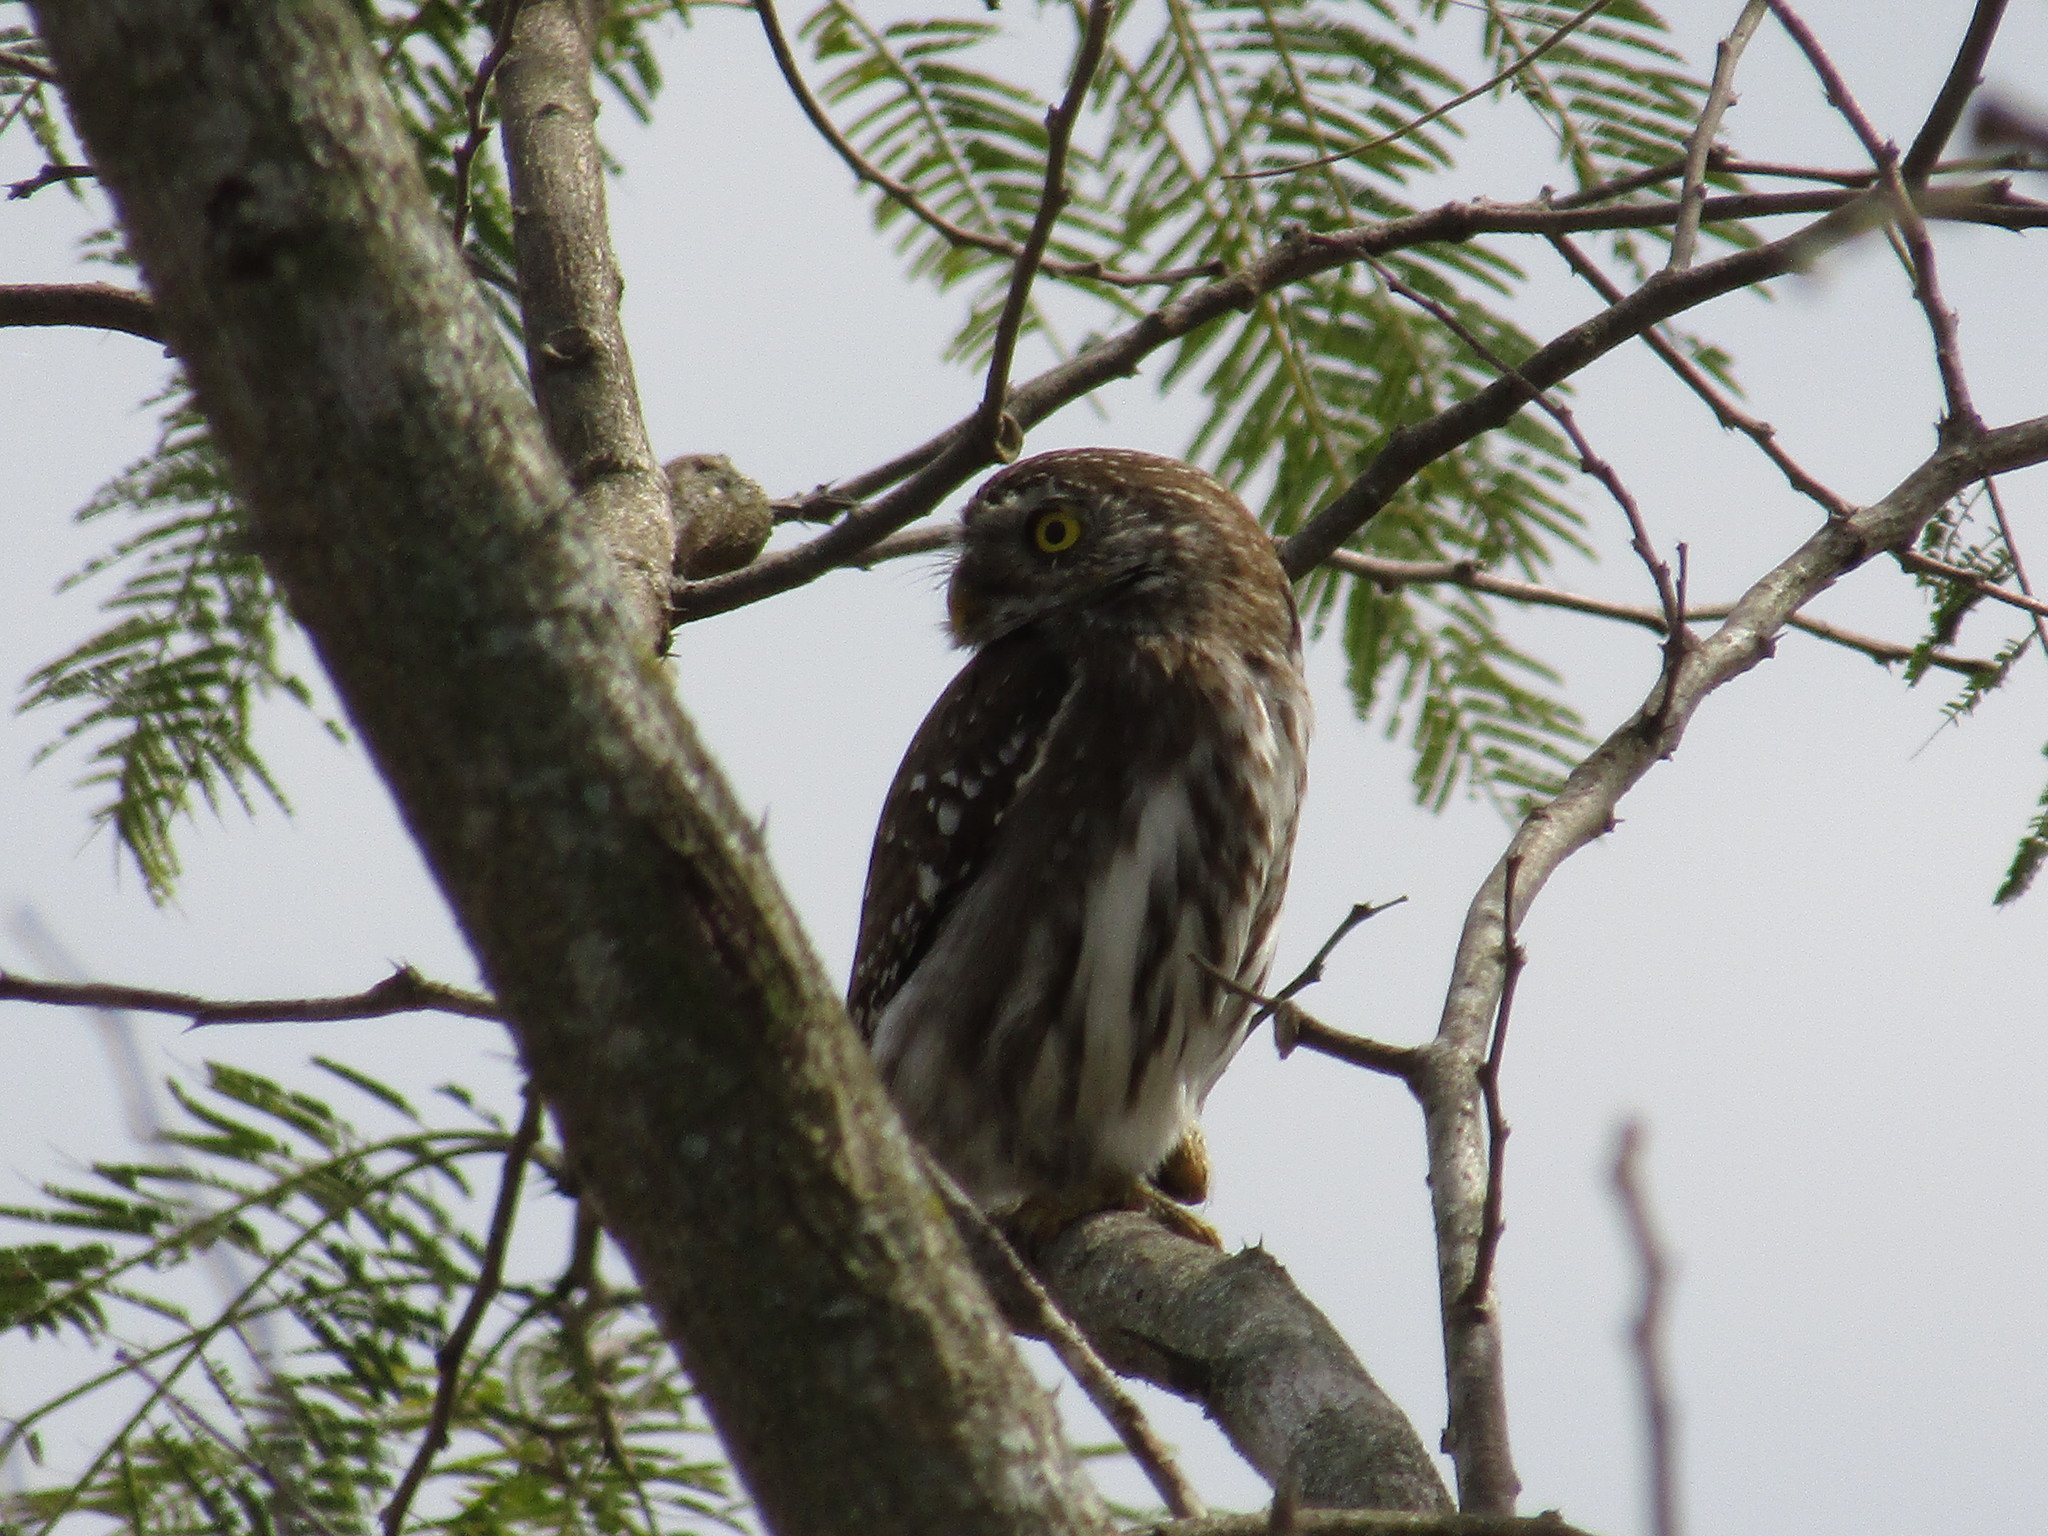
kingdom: Animalia
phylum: Chordata
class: Aves
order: Strigiformes
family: Strigidae
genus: Glaucidium
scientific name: Glaucidium brasilianum
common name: Ferruginous pygmy-owl
